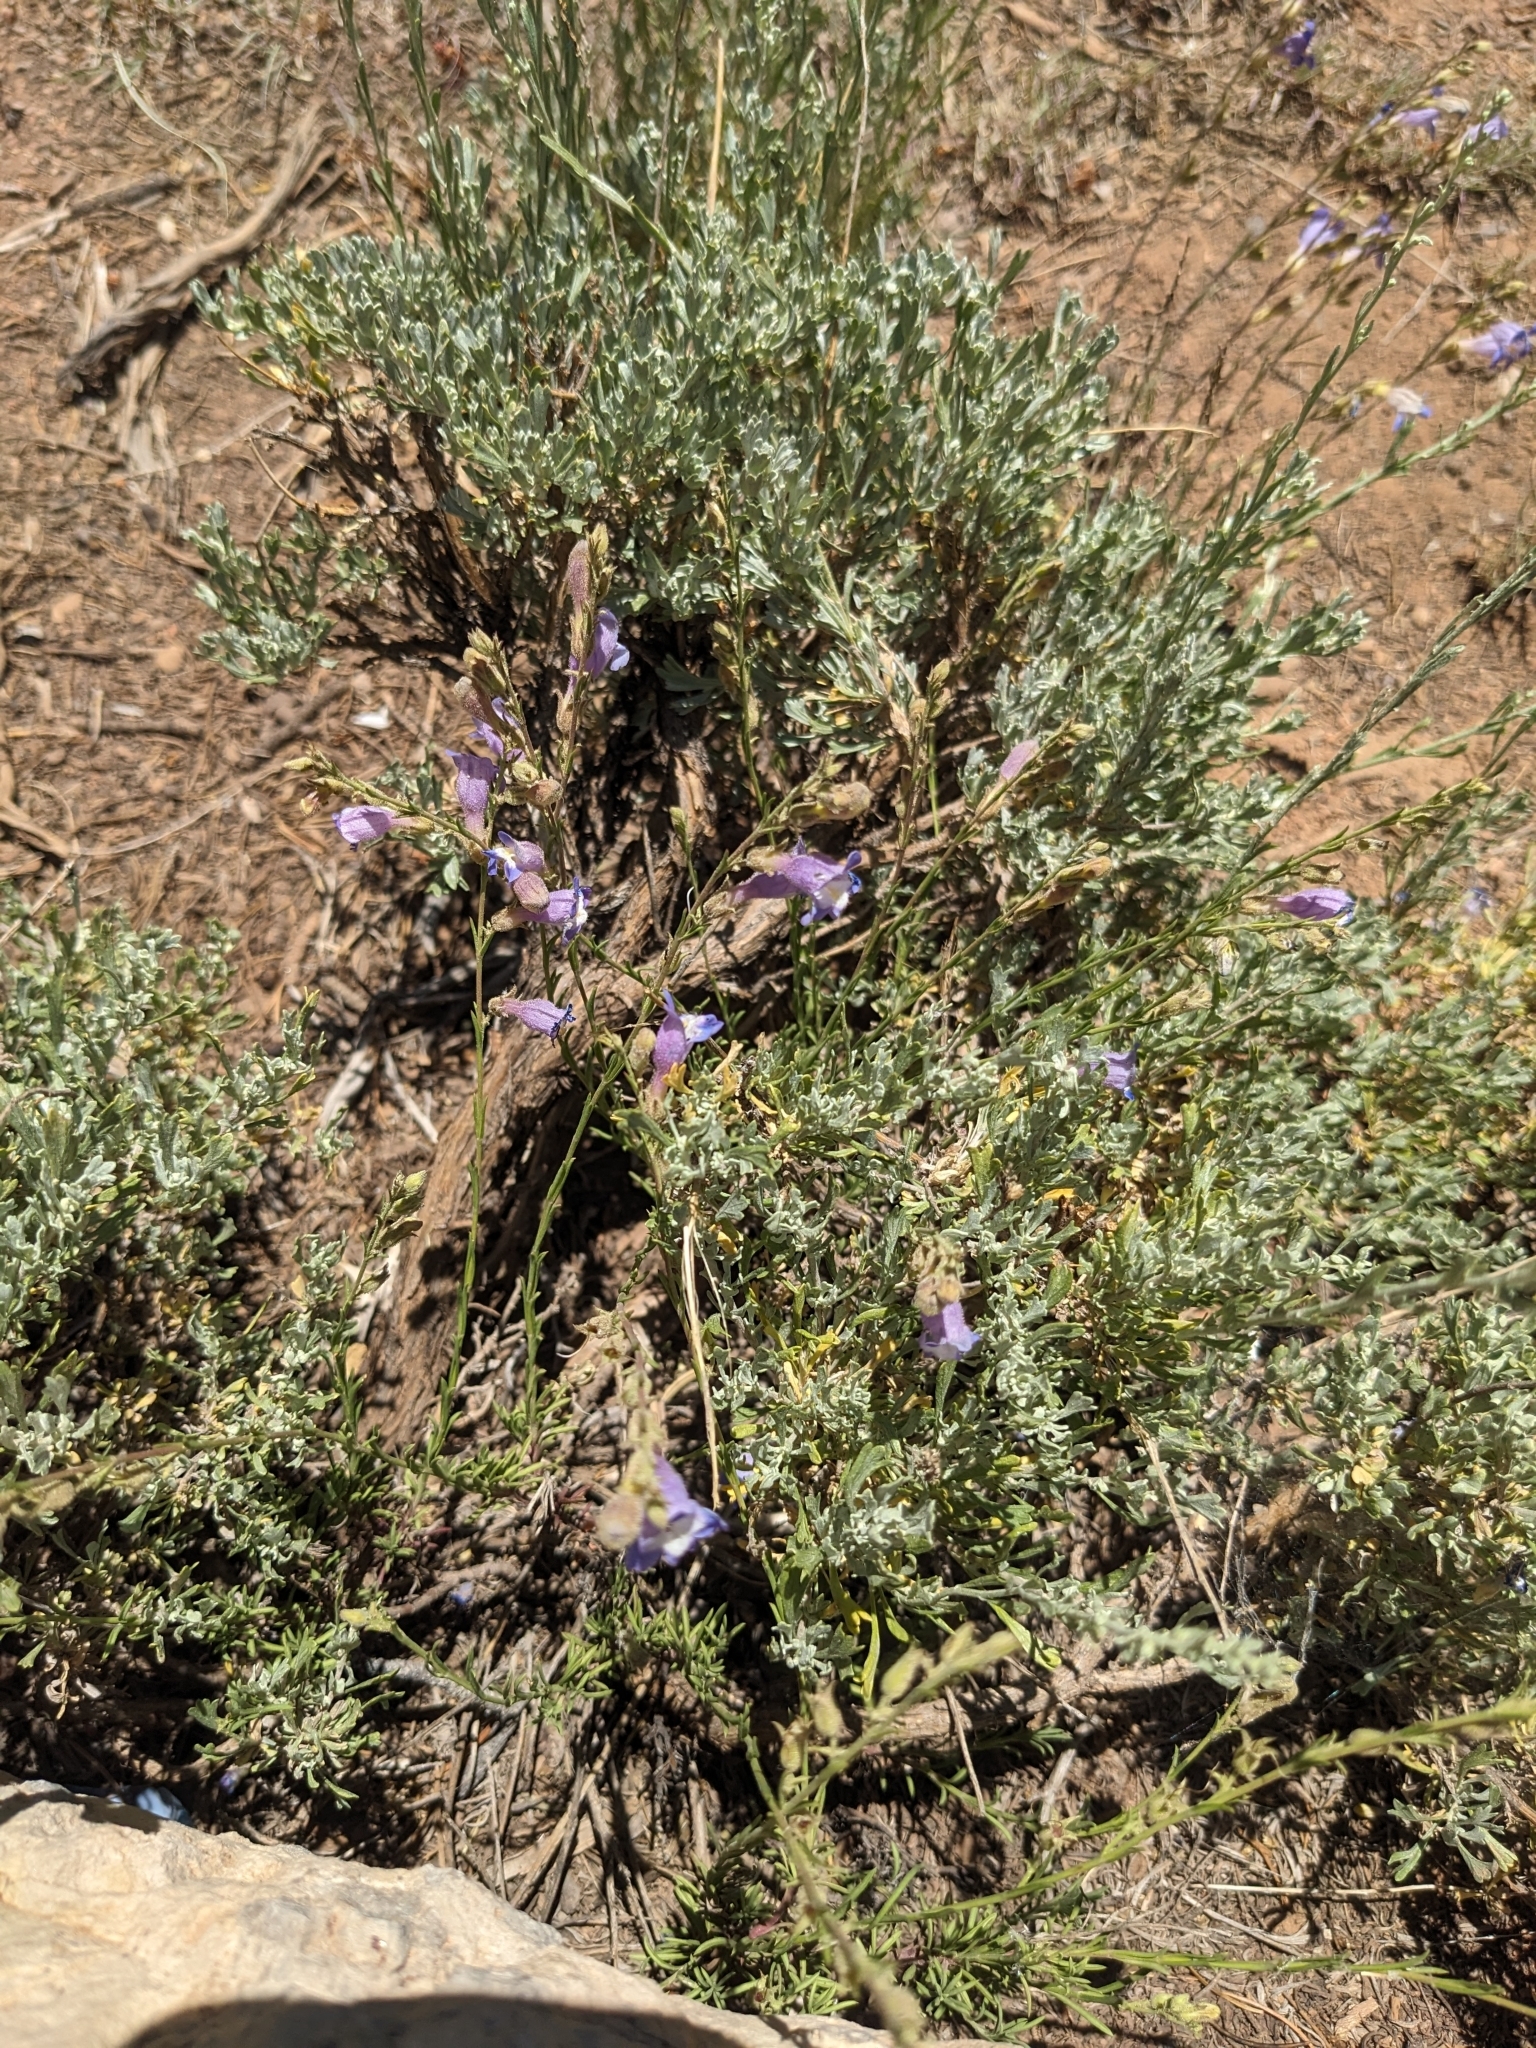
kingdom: Plantae
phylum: Tracheophyta
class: Magnoliopsida
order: Lamiales
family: Plantaginaceae
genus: Penstemon
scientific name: Penstemon linarioides
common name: Siler's penstemon
